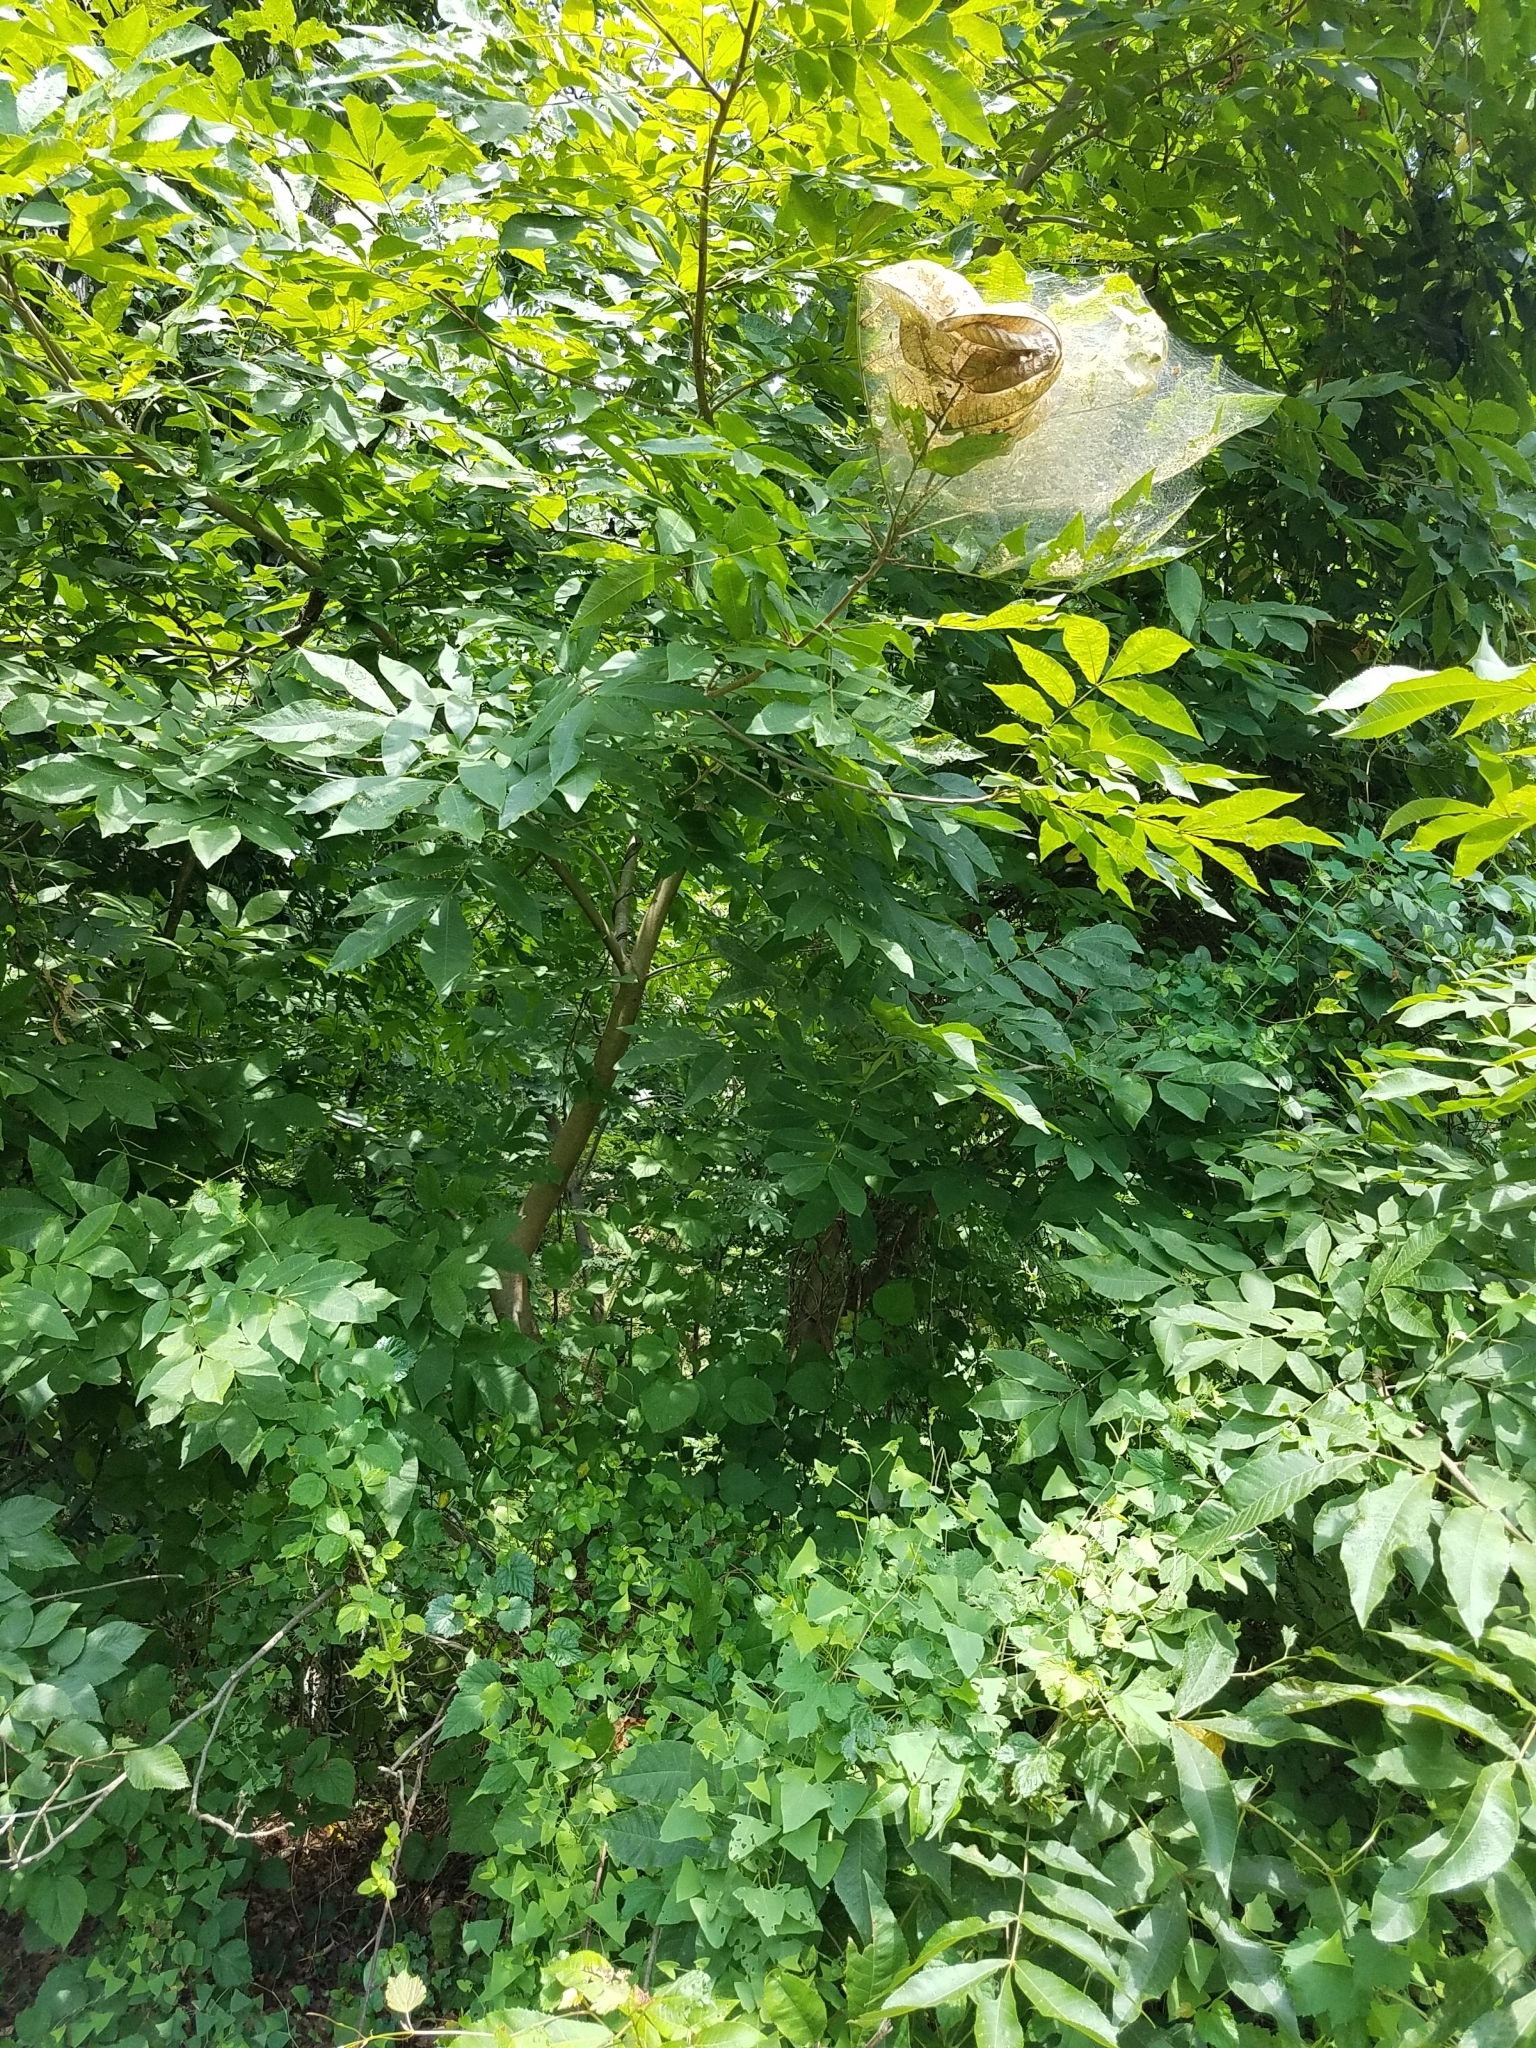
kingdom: Animalia
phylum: Arthropoda
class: Insecta
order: Lepidoptera
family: Erebidae
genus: Hyphantria
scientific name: Hyphantria cunea
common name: American white moth
